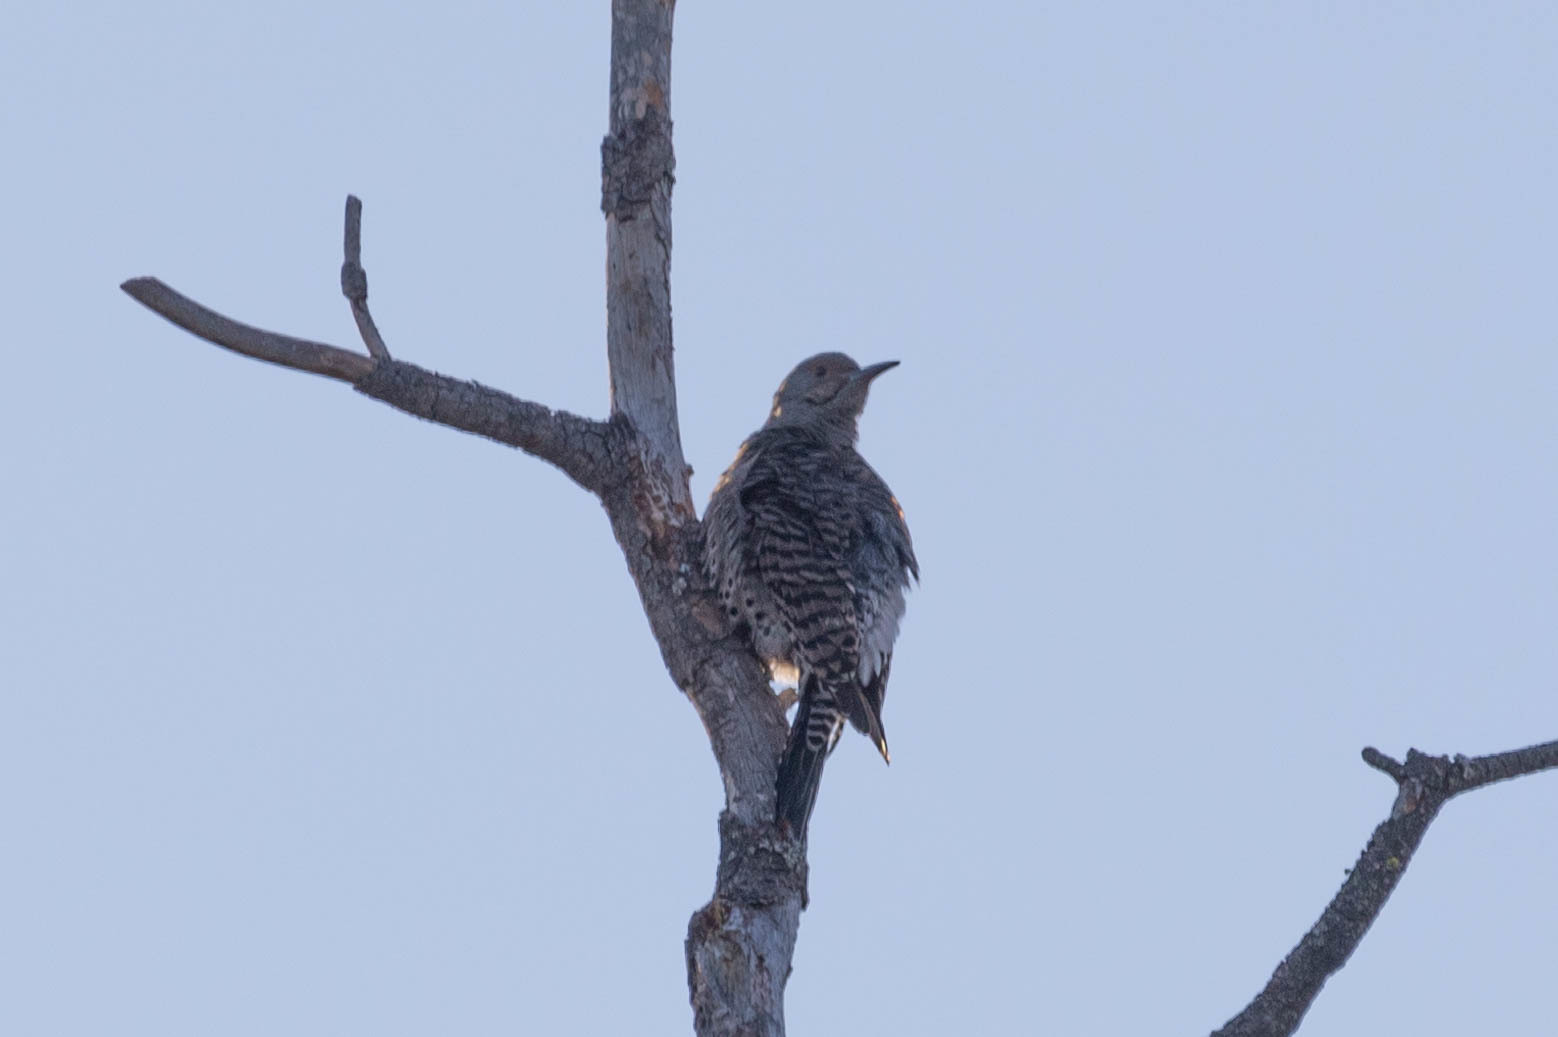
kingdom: Animalia
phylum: Chordata
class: Aves
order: Piciformes
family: Picidae
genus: Colaptes
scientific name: Colaptes auratus
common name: Northern flicker
